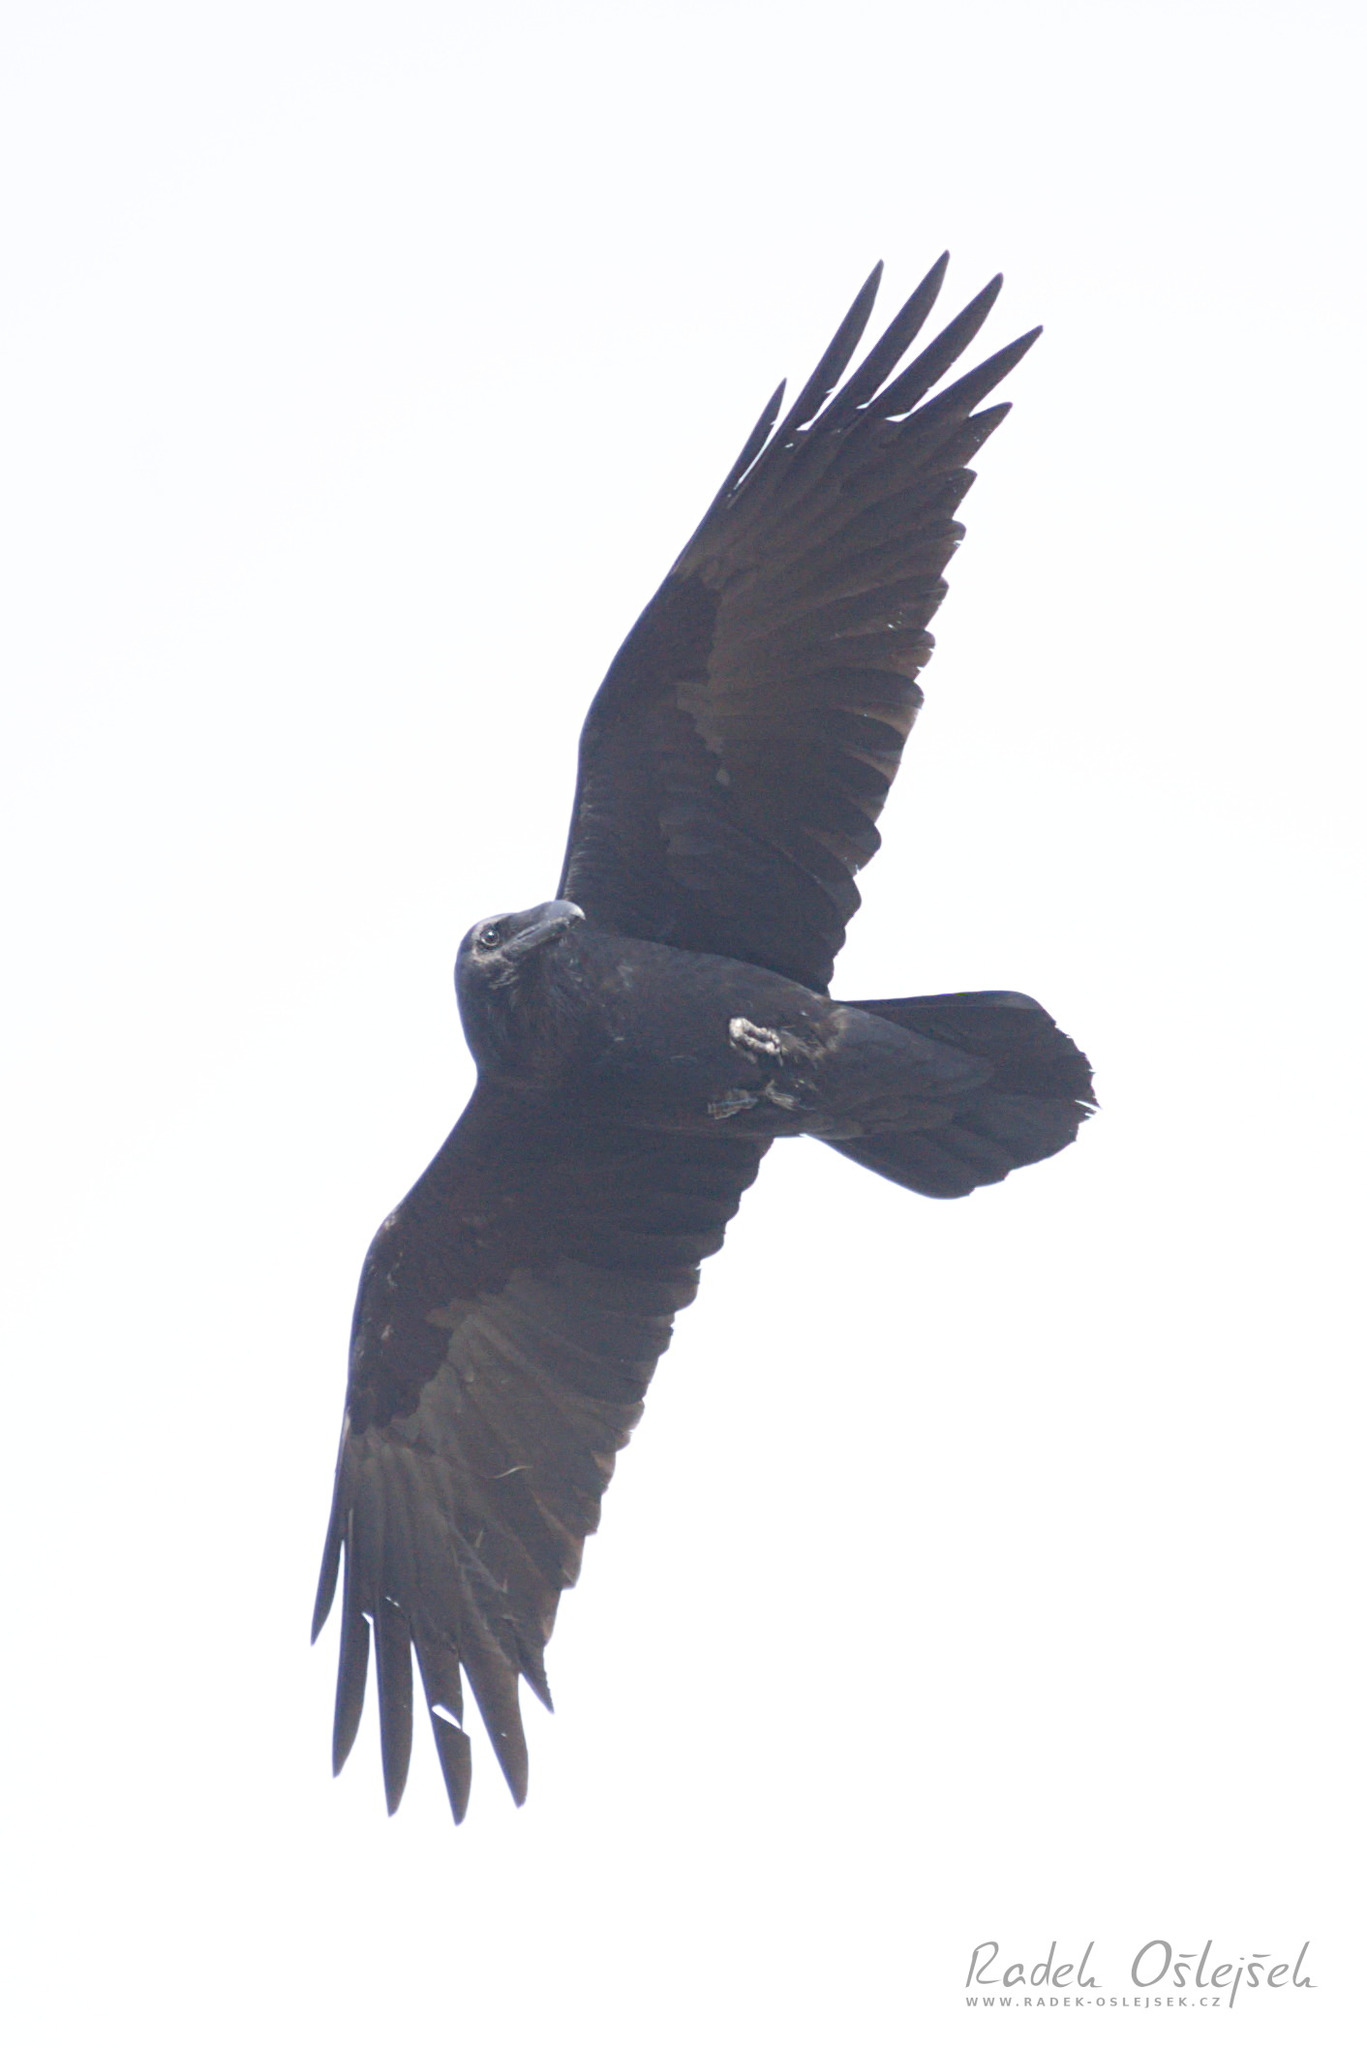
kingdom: Animalia
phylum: Chordata
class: Aves
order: Passeriformes
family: Corvidae
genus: Corvus
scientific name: Corvus corax
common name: Common raven
